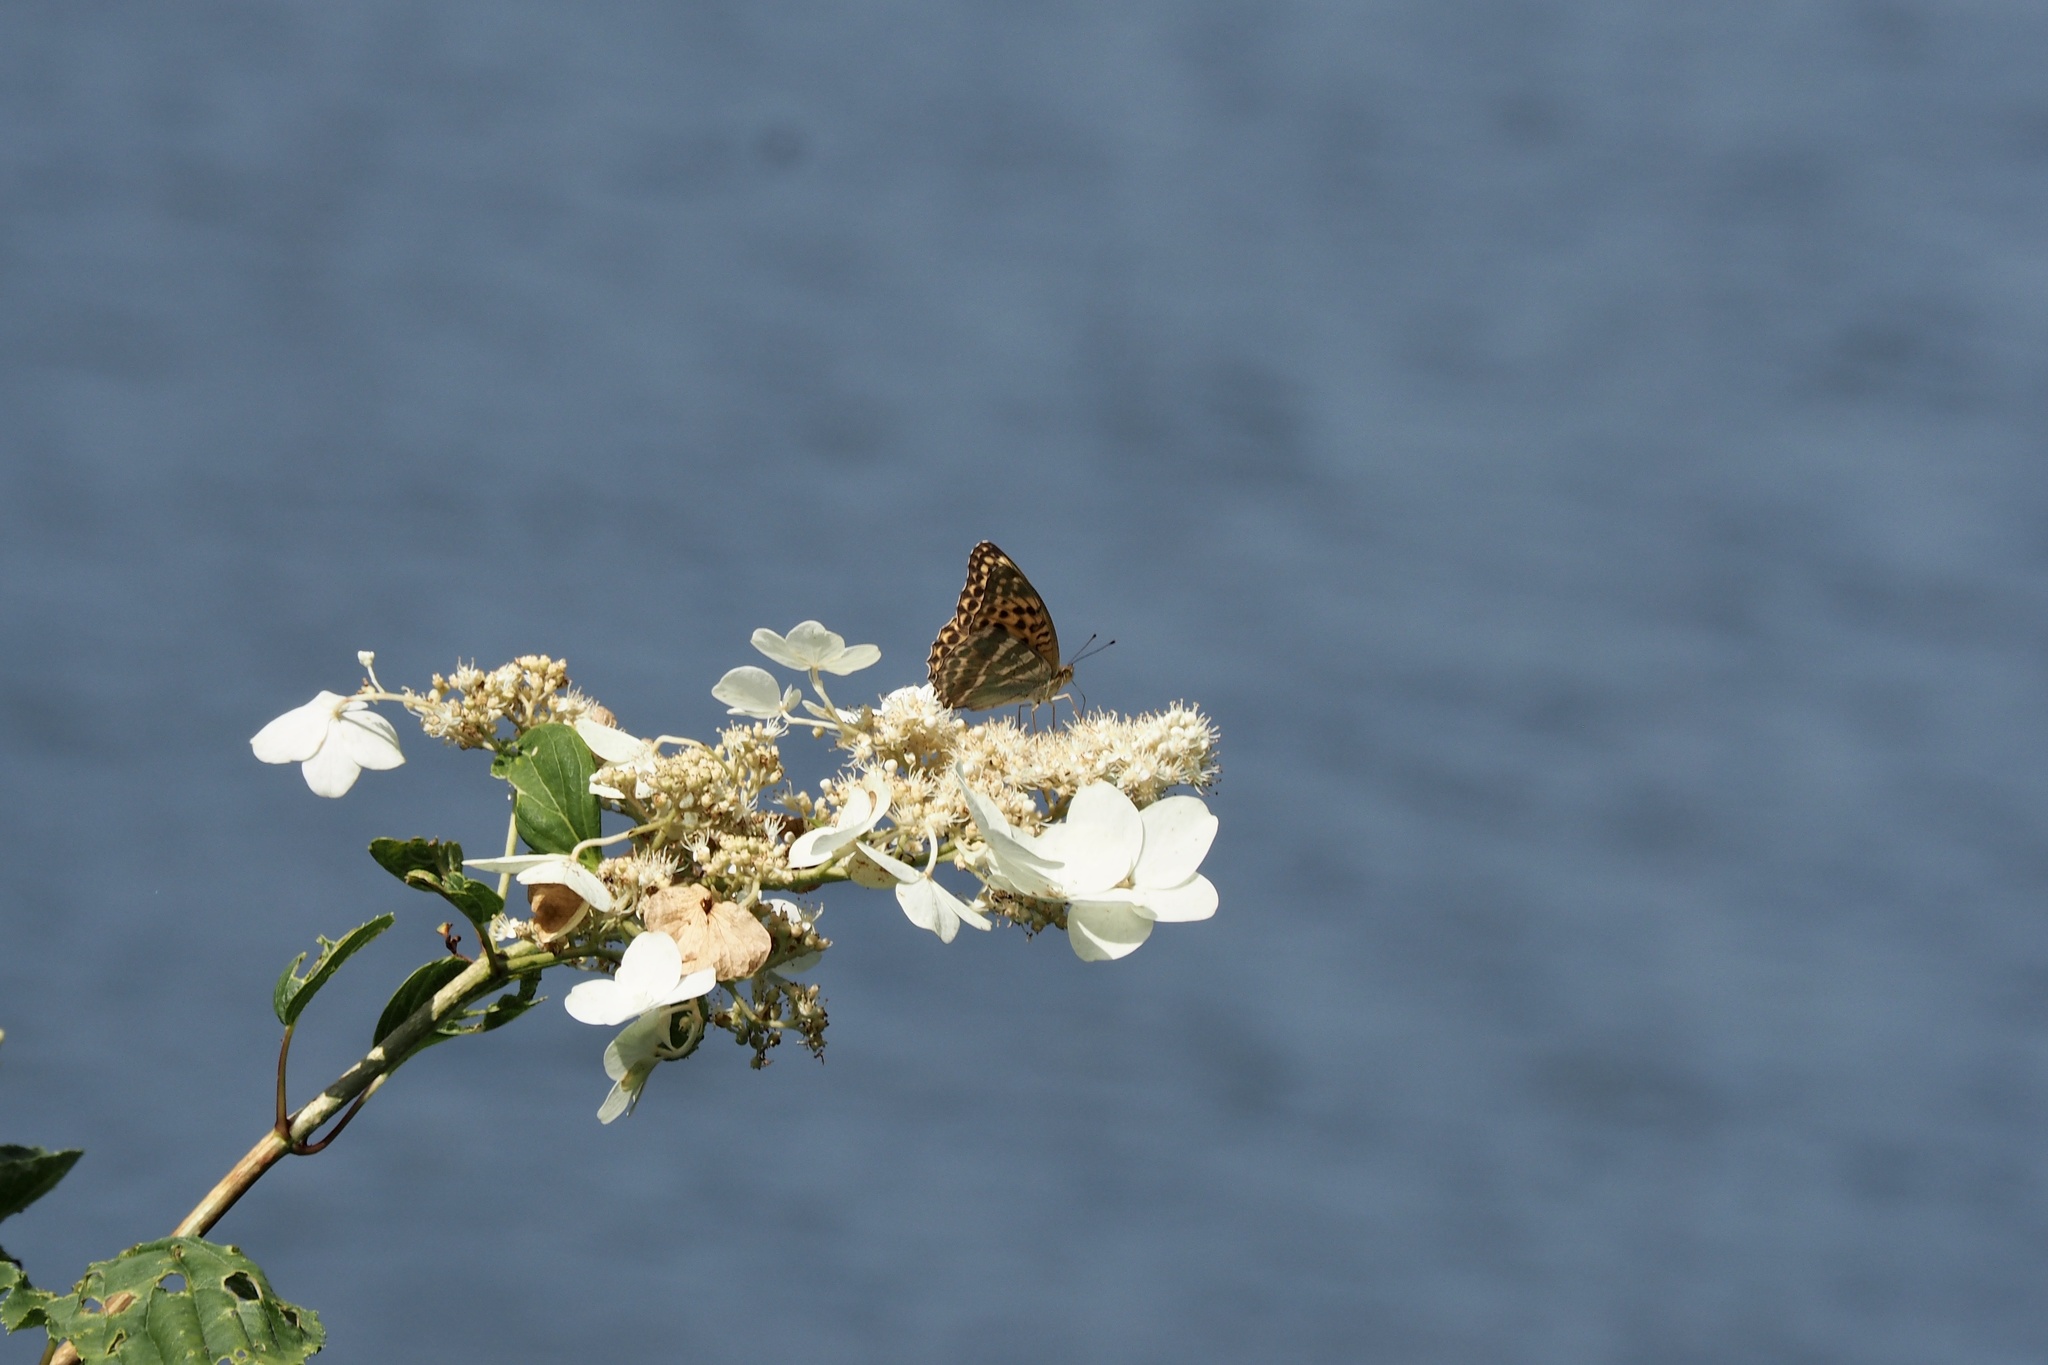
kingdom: Animalia
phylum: Arthropoda
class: Insecta
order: Lepidoptera
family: Nymphalidae
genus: Argynnis
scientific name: Argynnis paphia
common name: Silver-washed fritillary
